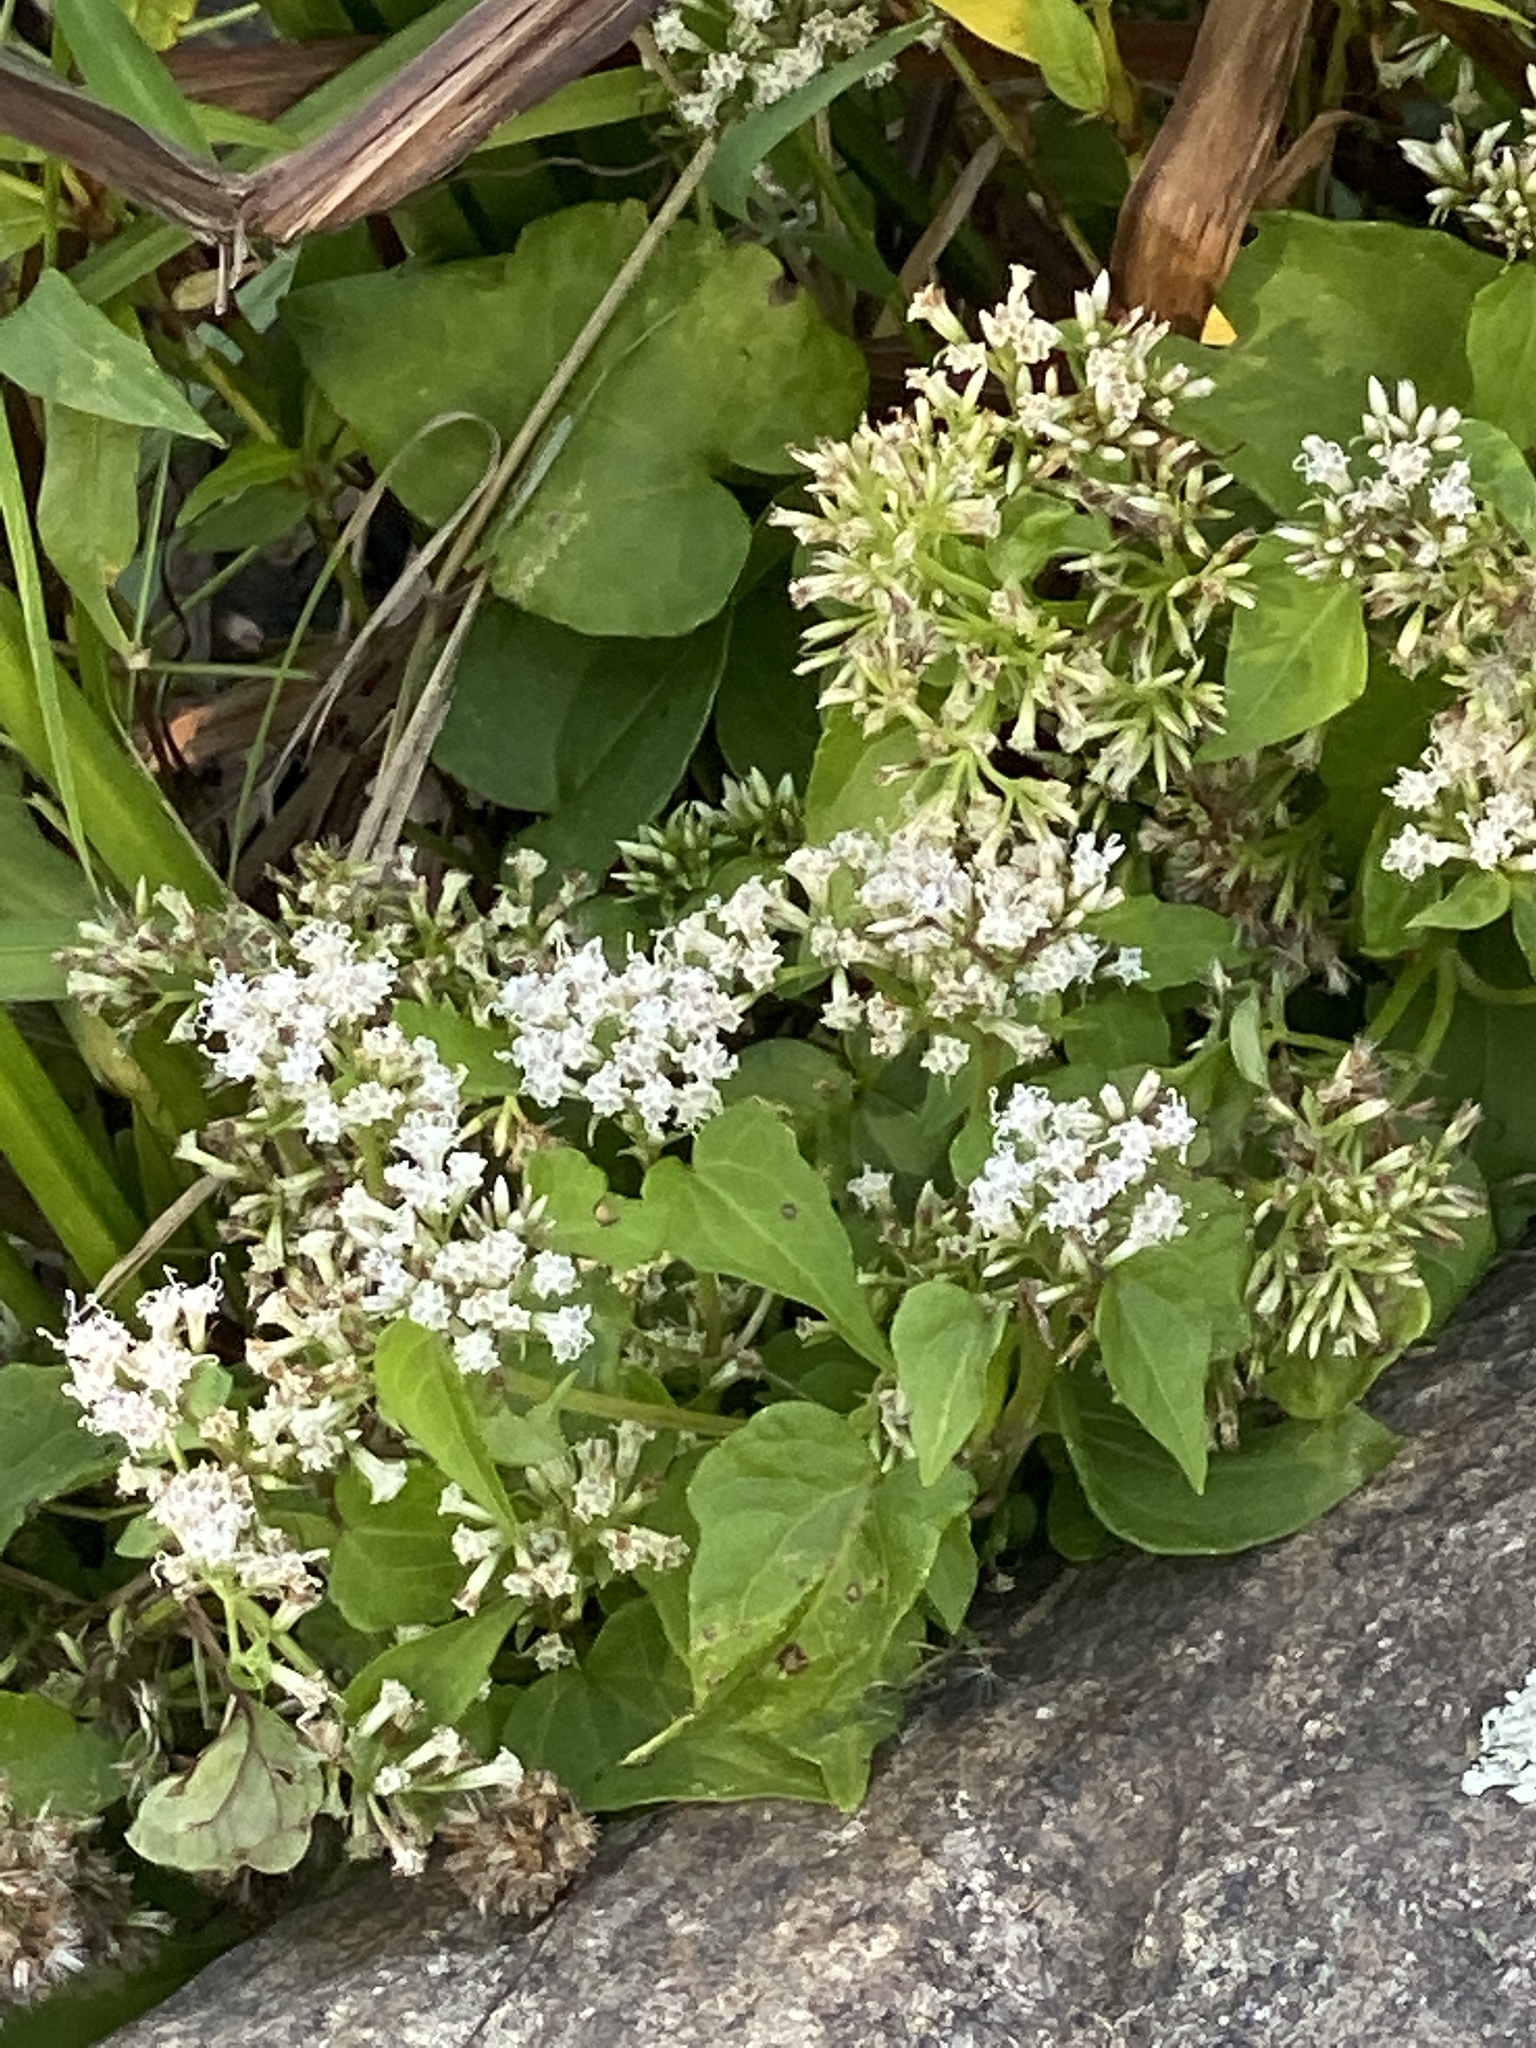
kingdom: Plantae
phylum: Tracheophyta
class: Magnoliopsida
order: Asterales
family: Asteraceae
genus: Mikania
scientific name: Mikania scandens
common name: Climbing hempvine
